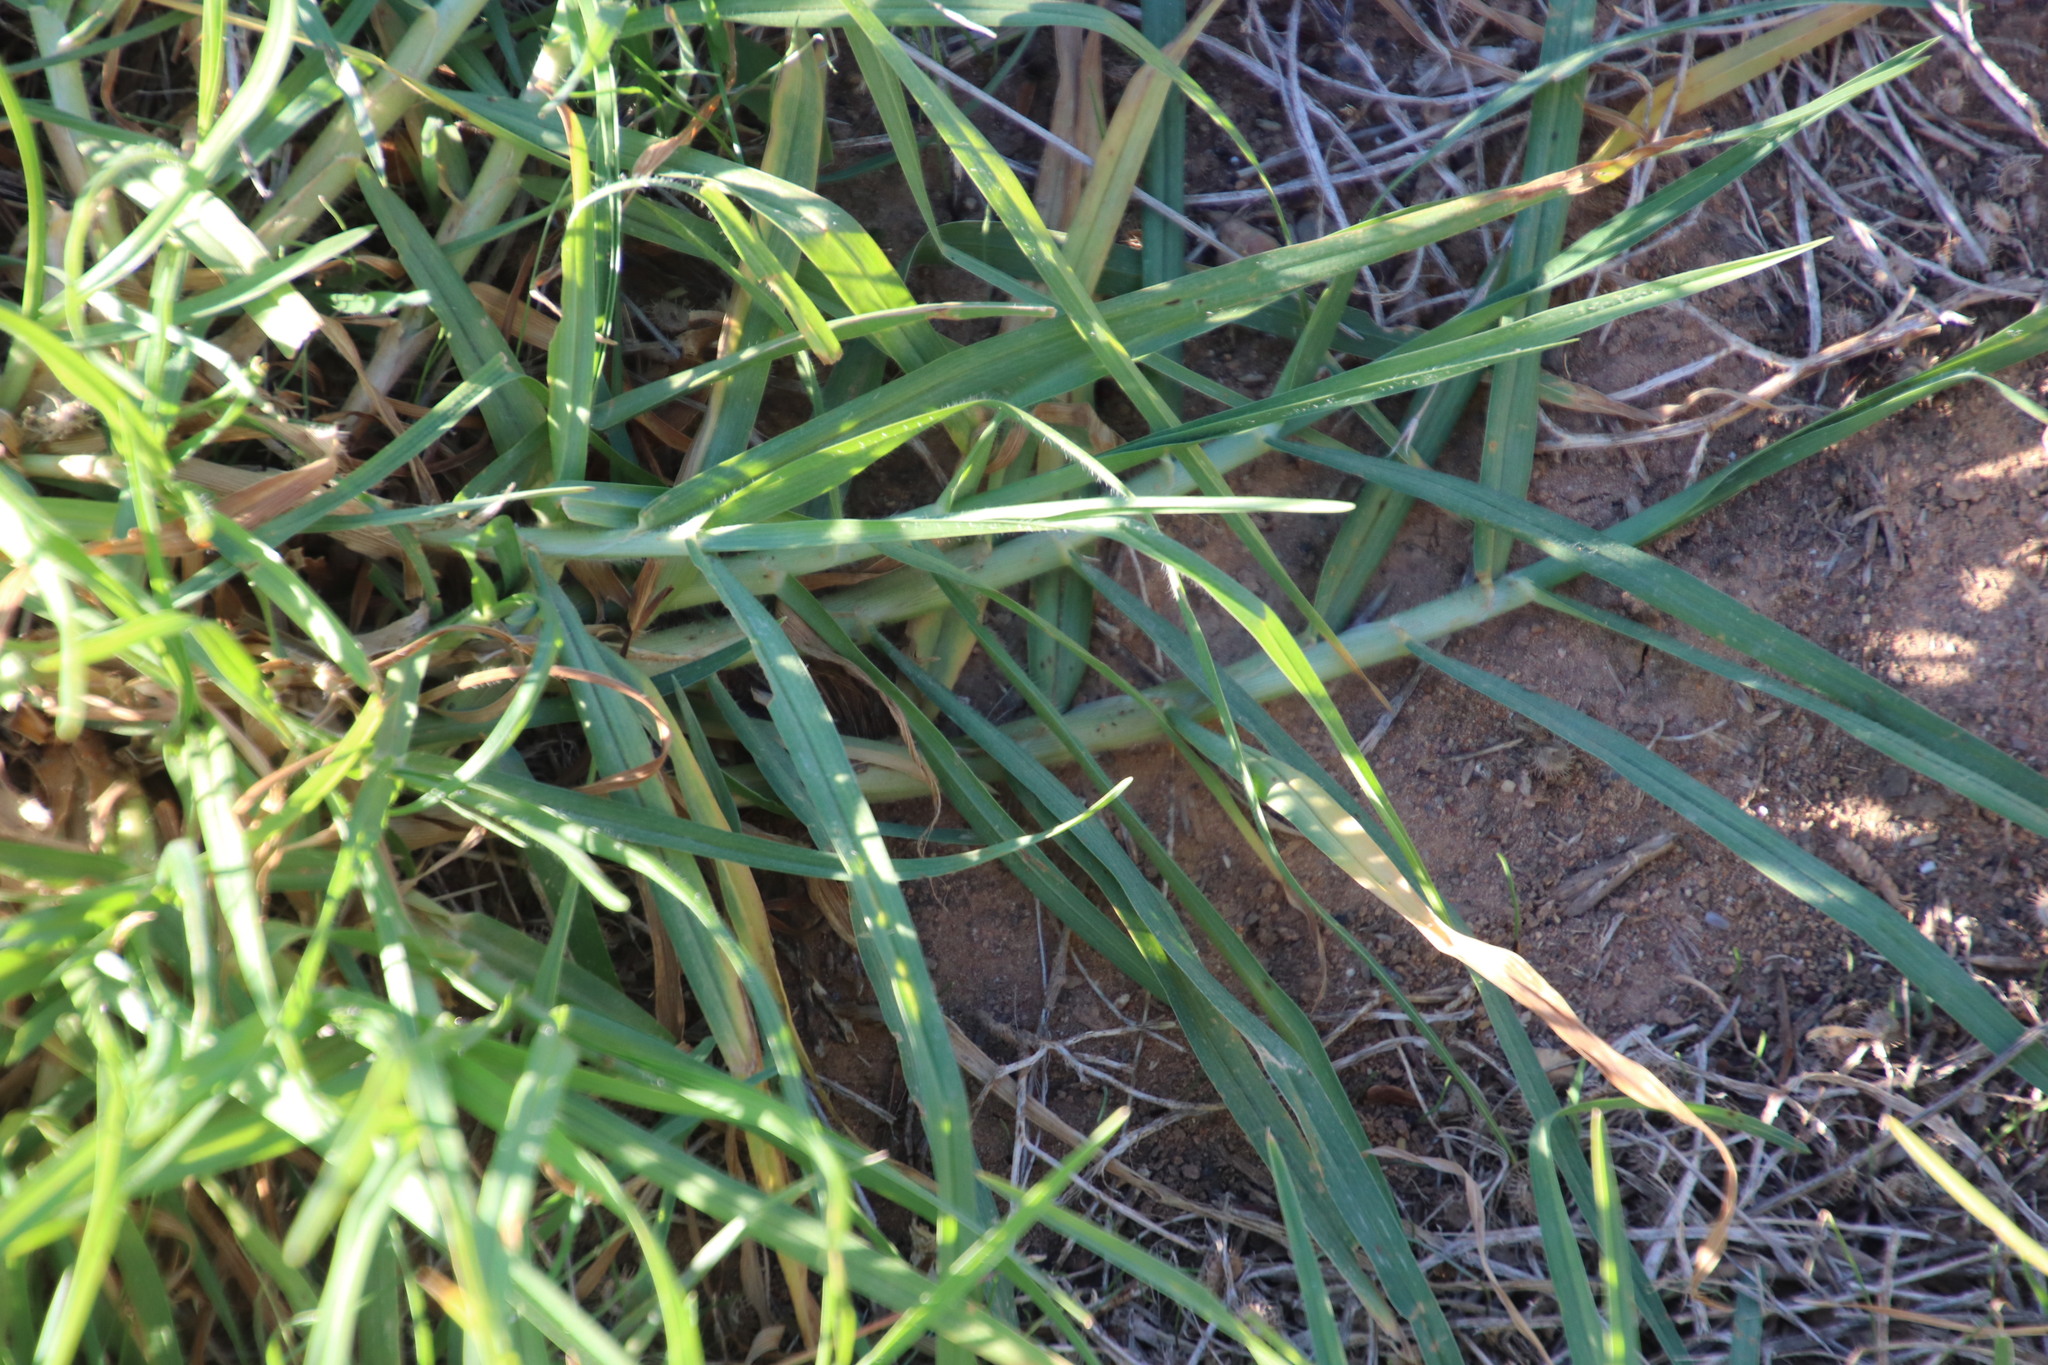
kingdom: Plantae
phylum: Tracheophyta
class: Liliopsida
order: Poales
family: Poaceae
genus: Cenchrus
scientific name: Cenchrus clandestinus
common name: Kikuyugrass
